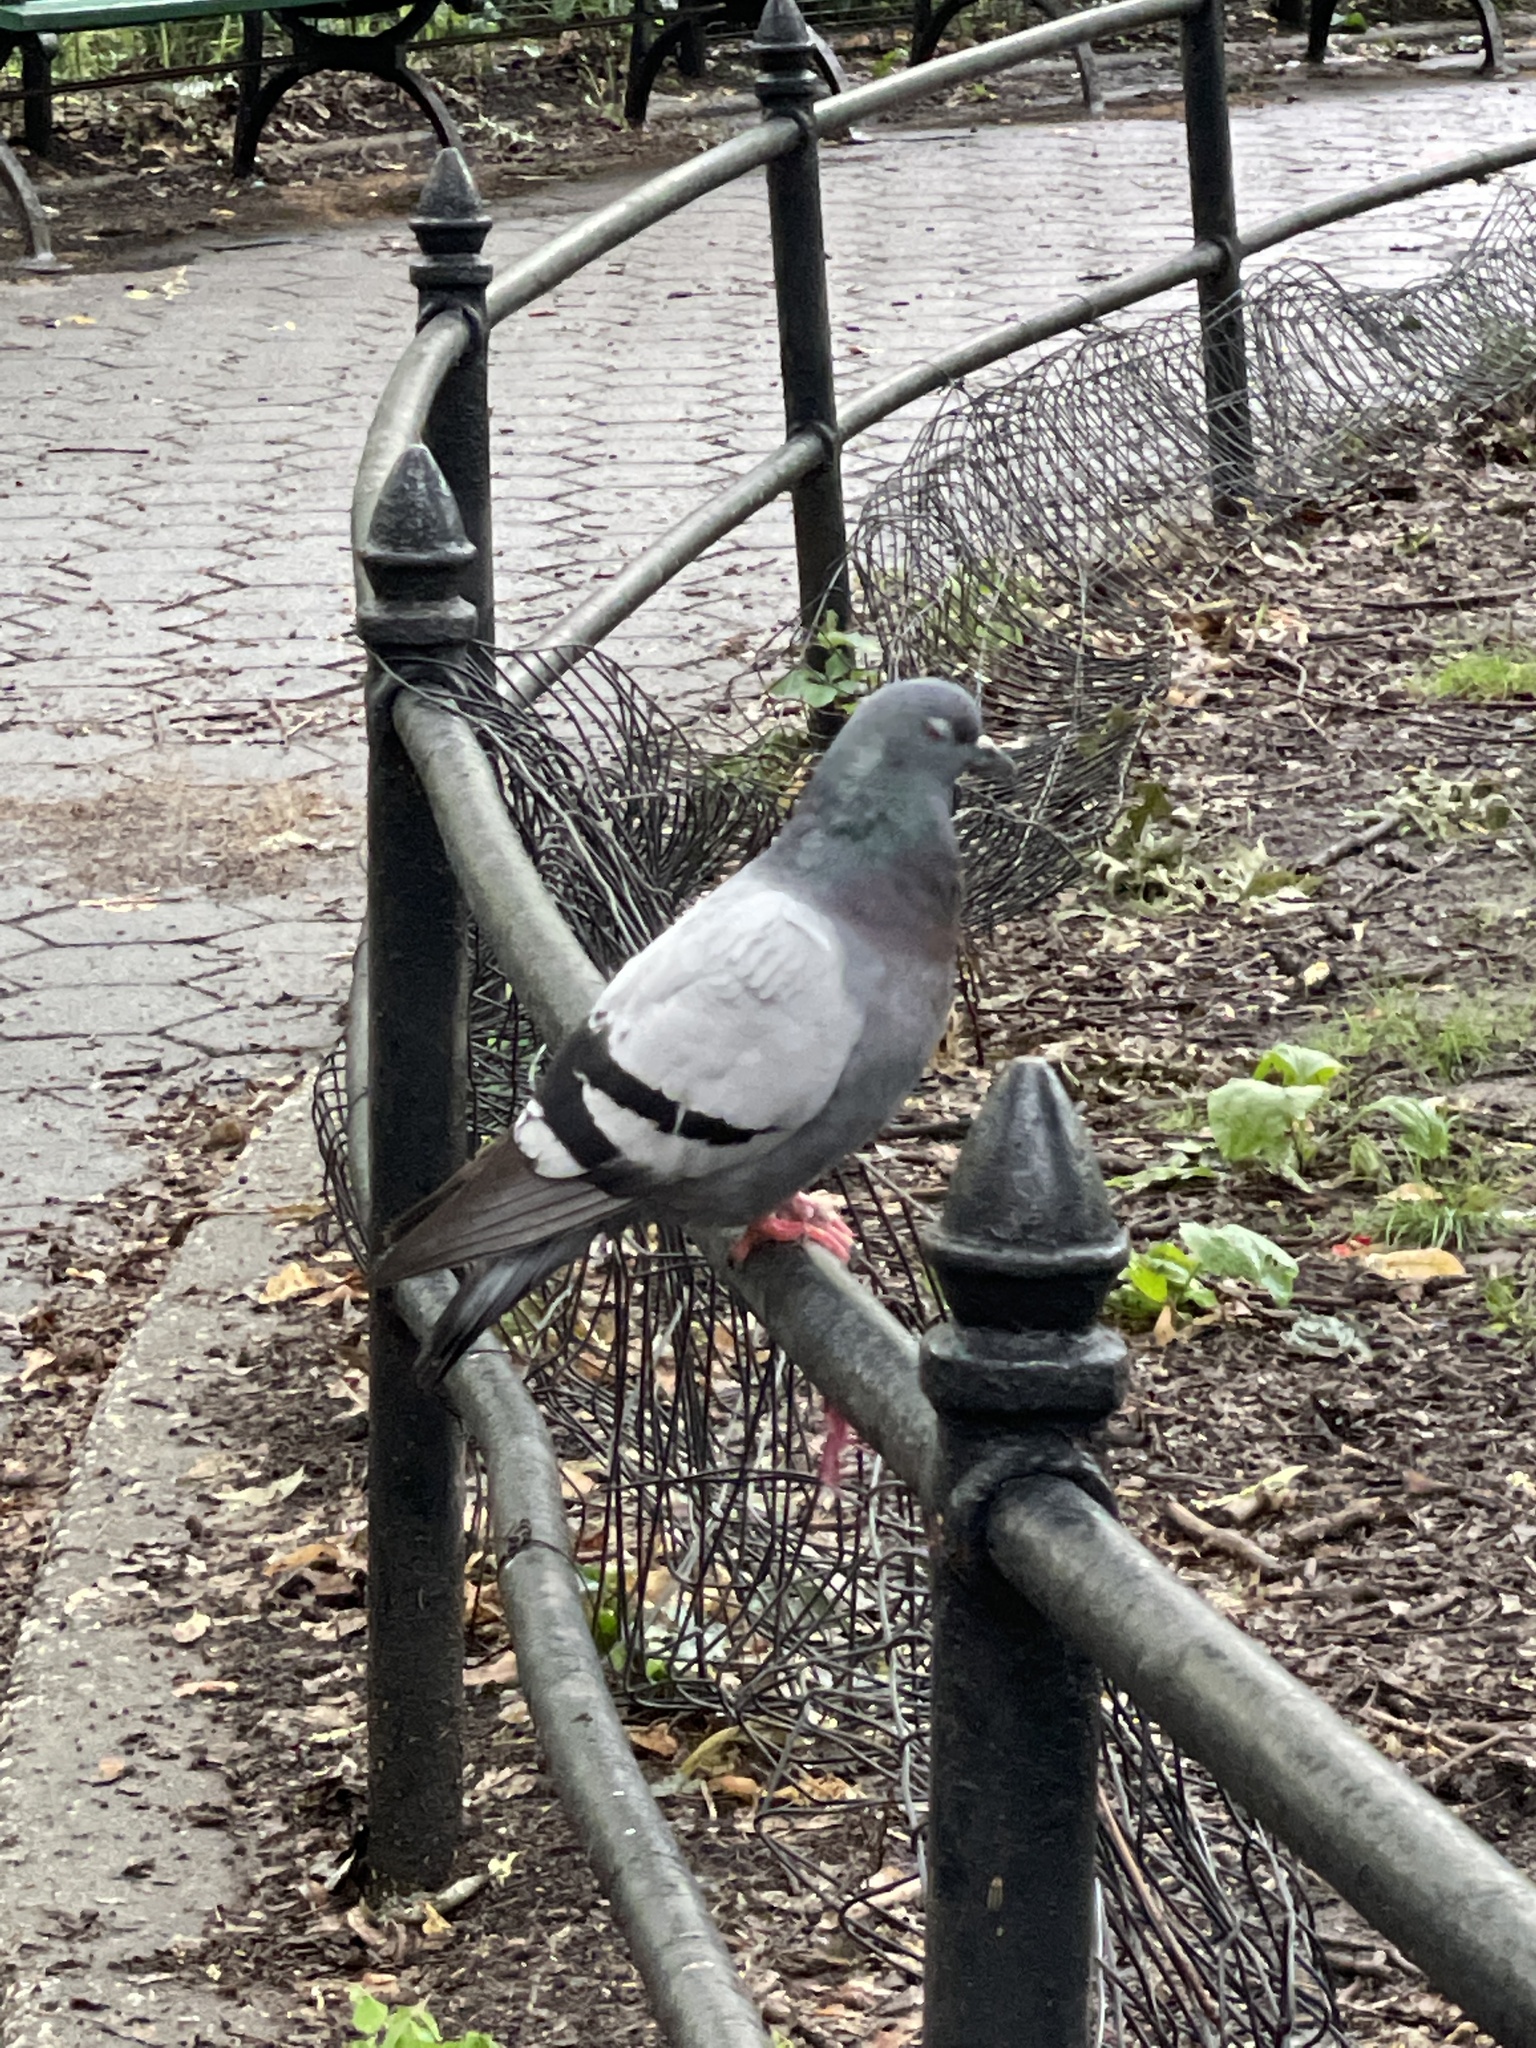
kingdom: Animalia
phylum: Chordata
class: Aves
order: Columbiformes
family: Columbidae
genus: Columba
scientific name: Columba livia
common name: Rock pigeon
